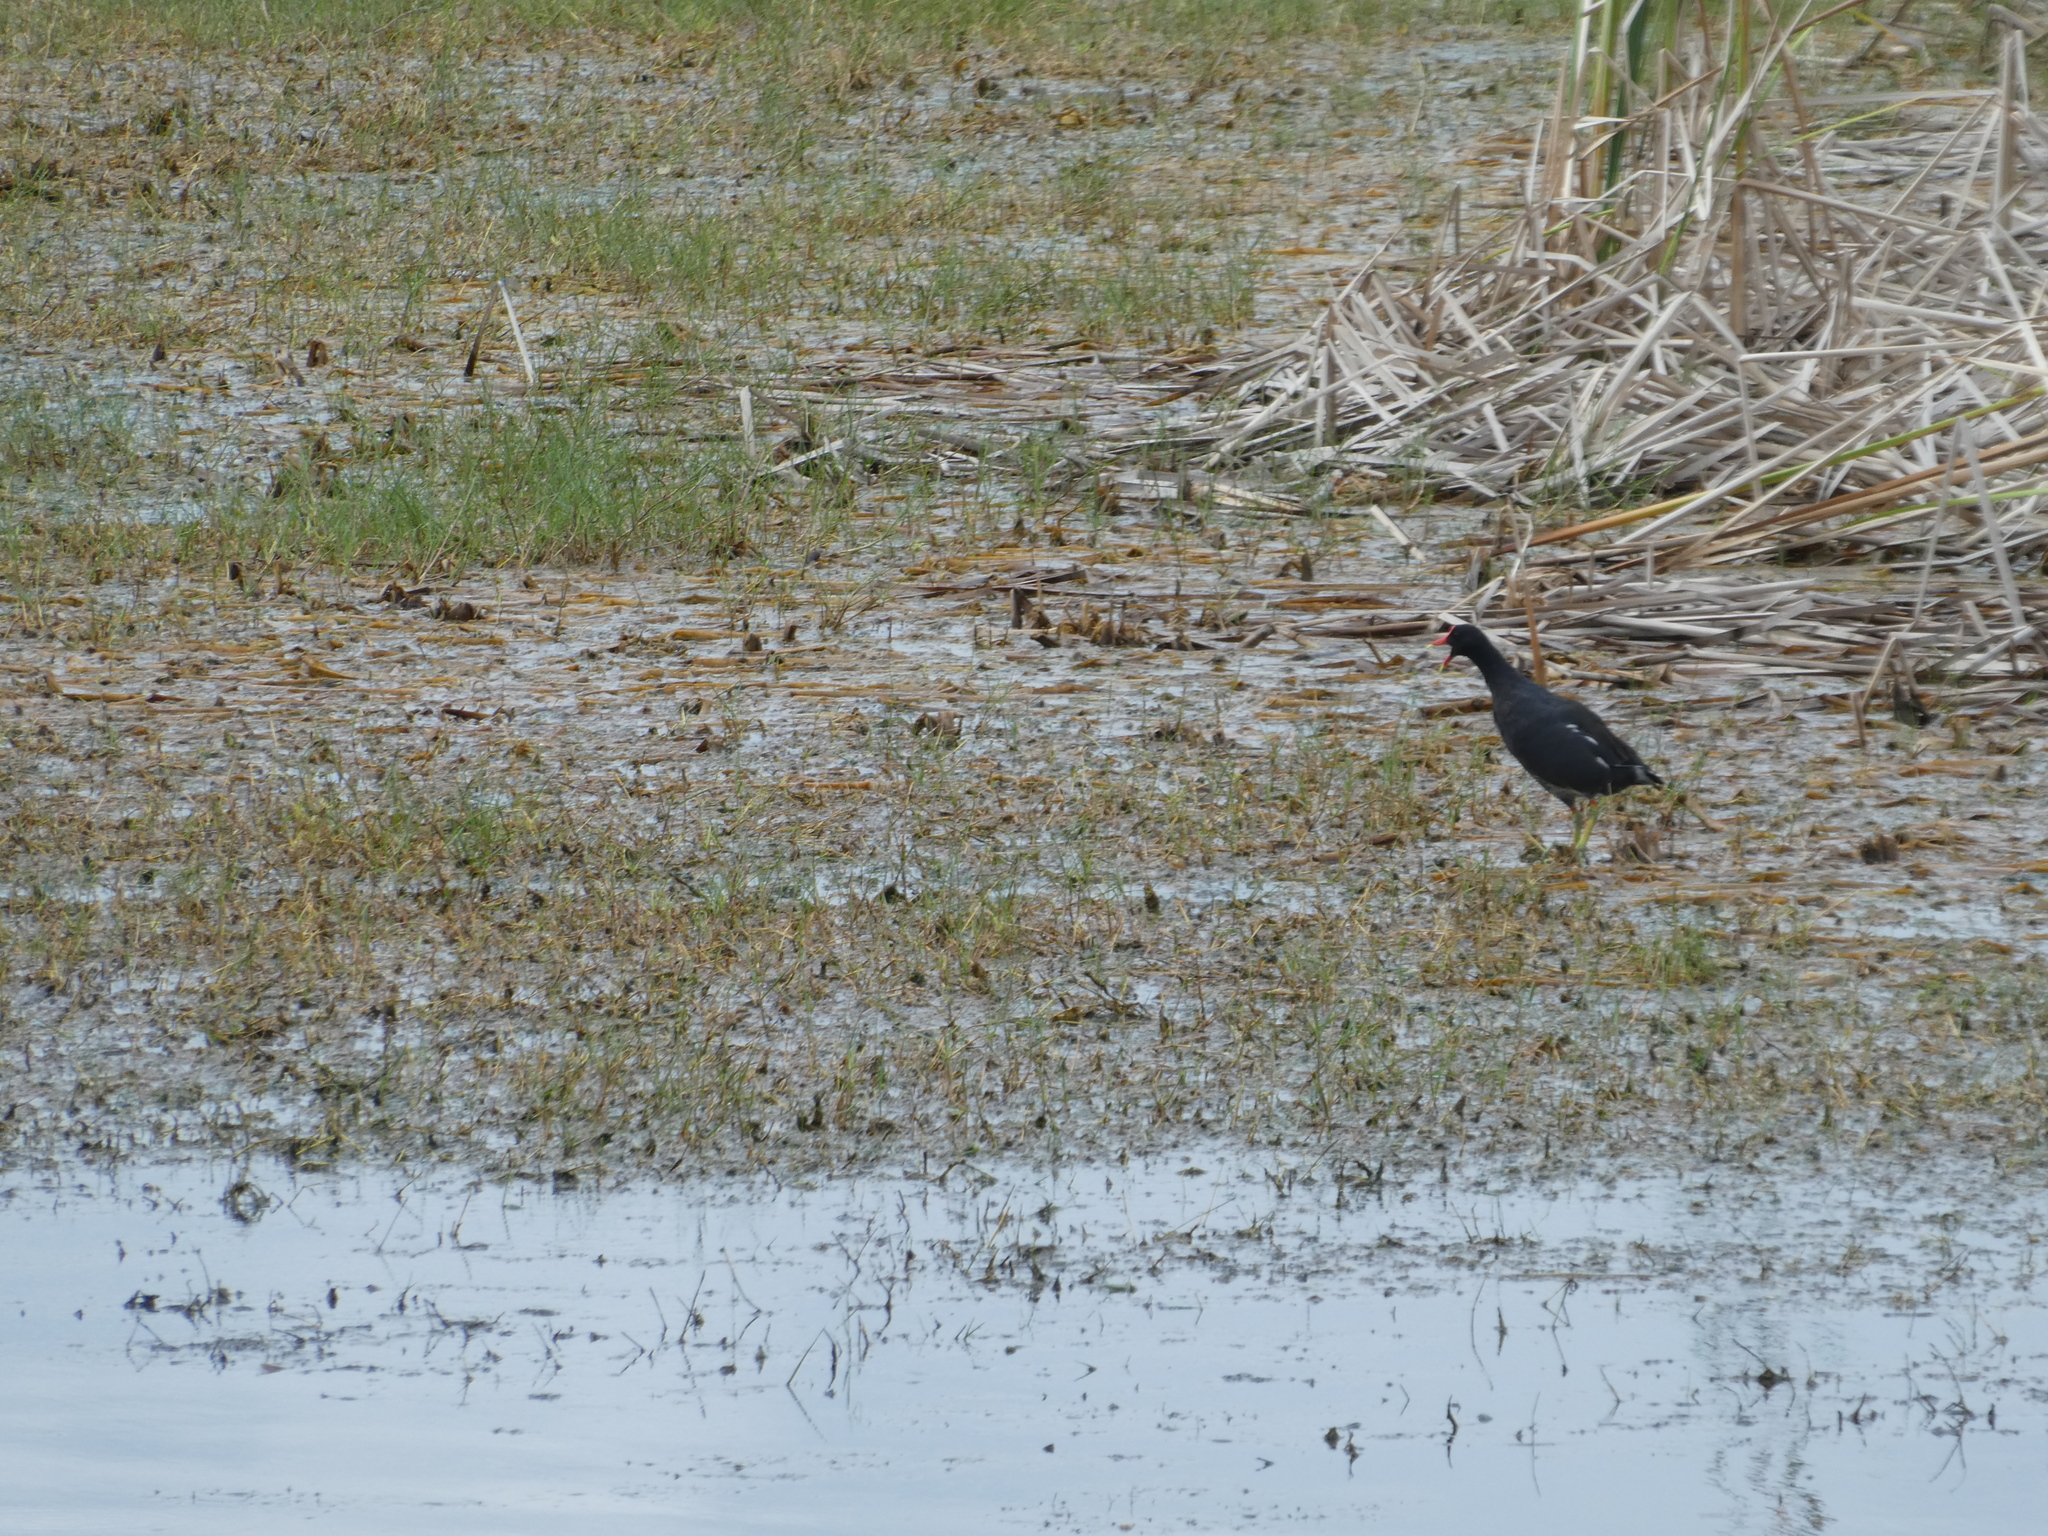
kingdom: Animalia
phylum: Chordata
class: Aves
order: Gruiformes
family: Rallidae
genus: Gallinula
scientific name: Gallinula chloropus
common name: Common moorhen
